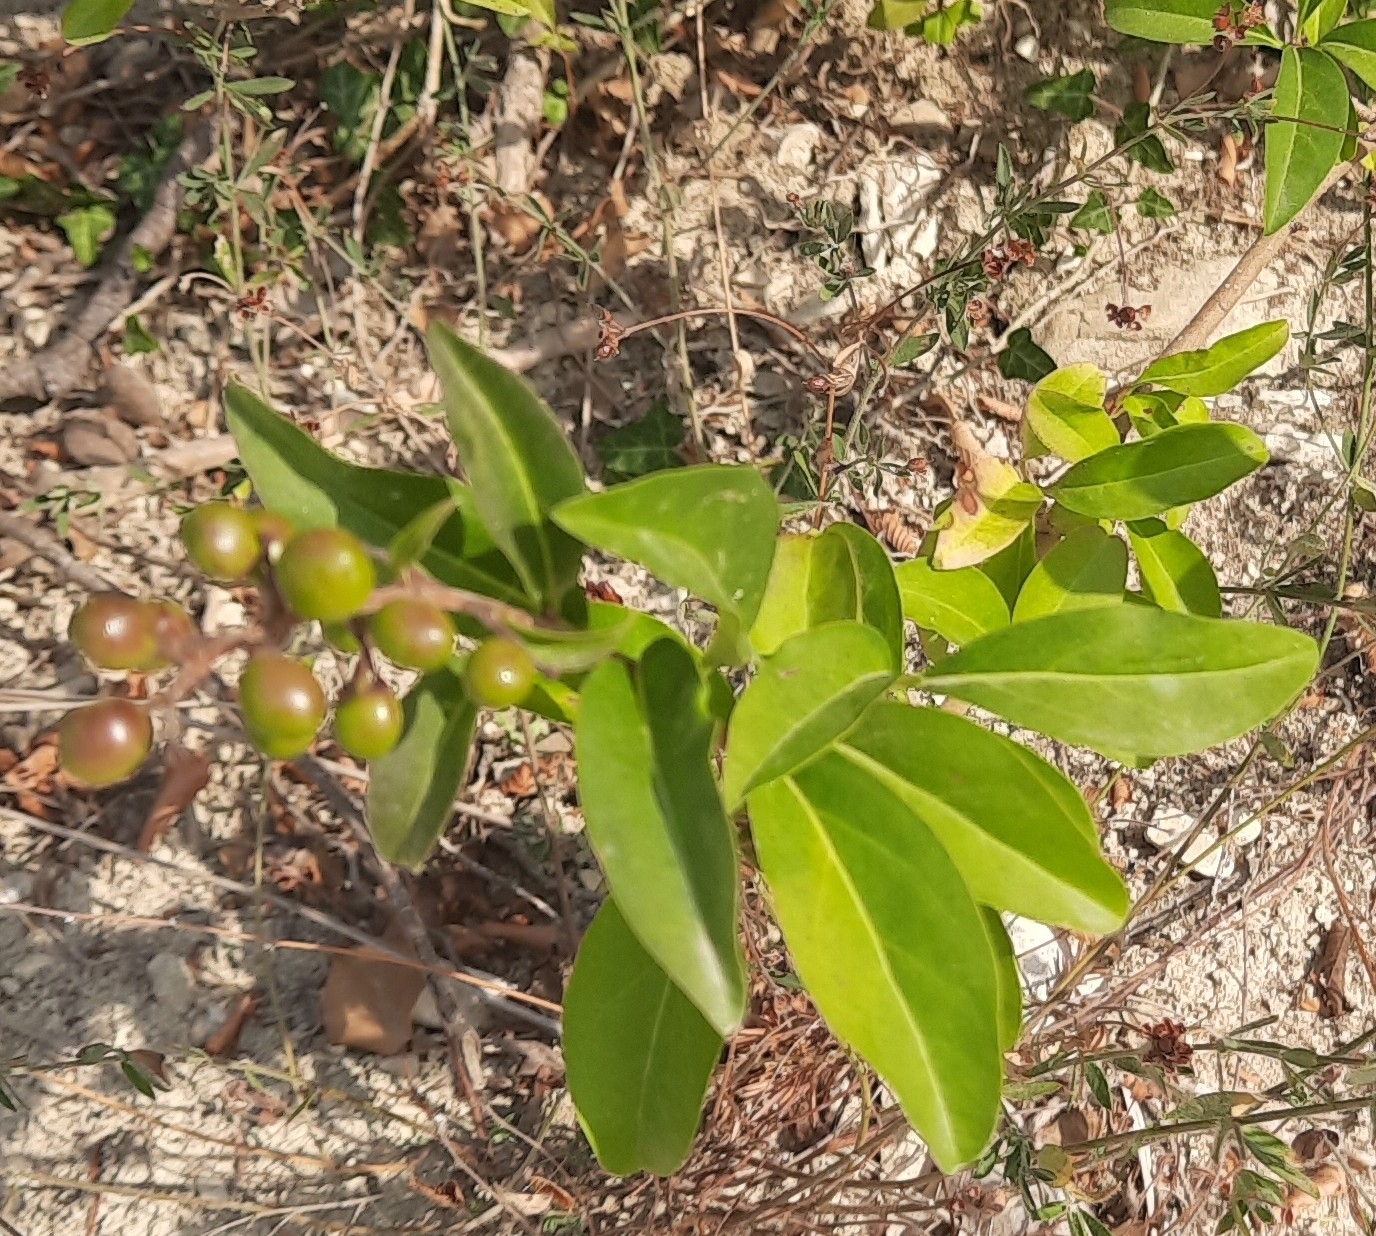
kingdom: Plantae
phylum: Tracheophyta
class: Magnoliopsida
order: Lamiales
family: Oleaceae
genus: Ligustrum
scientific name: Ligustrum vulgare
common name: Wild privet
